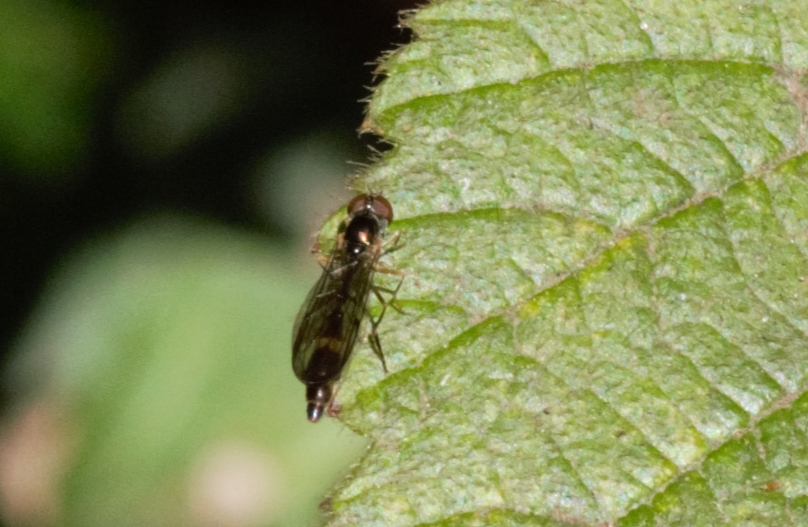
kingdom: Animalia
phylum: Arthropoda
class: Insecta
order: Diptera
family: Syrphidae
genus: Baccha
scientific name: Baccha elongata
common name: Common dainty
